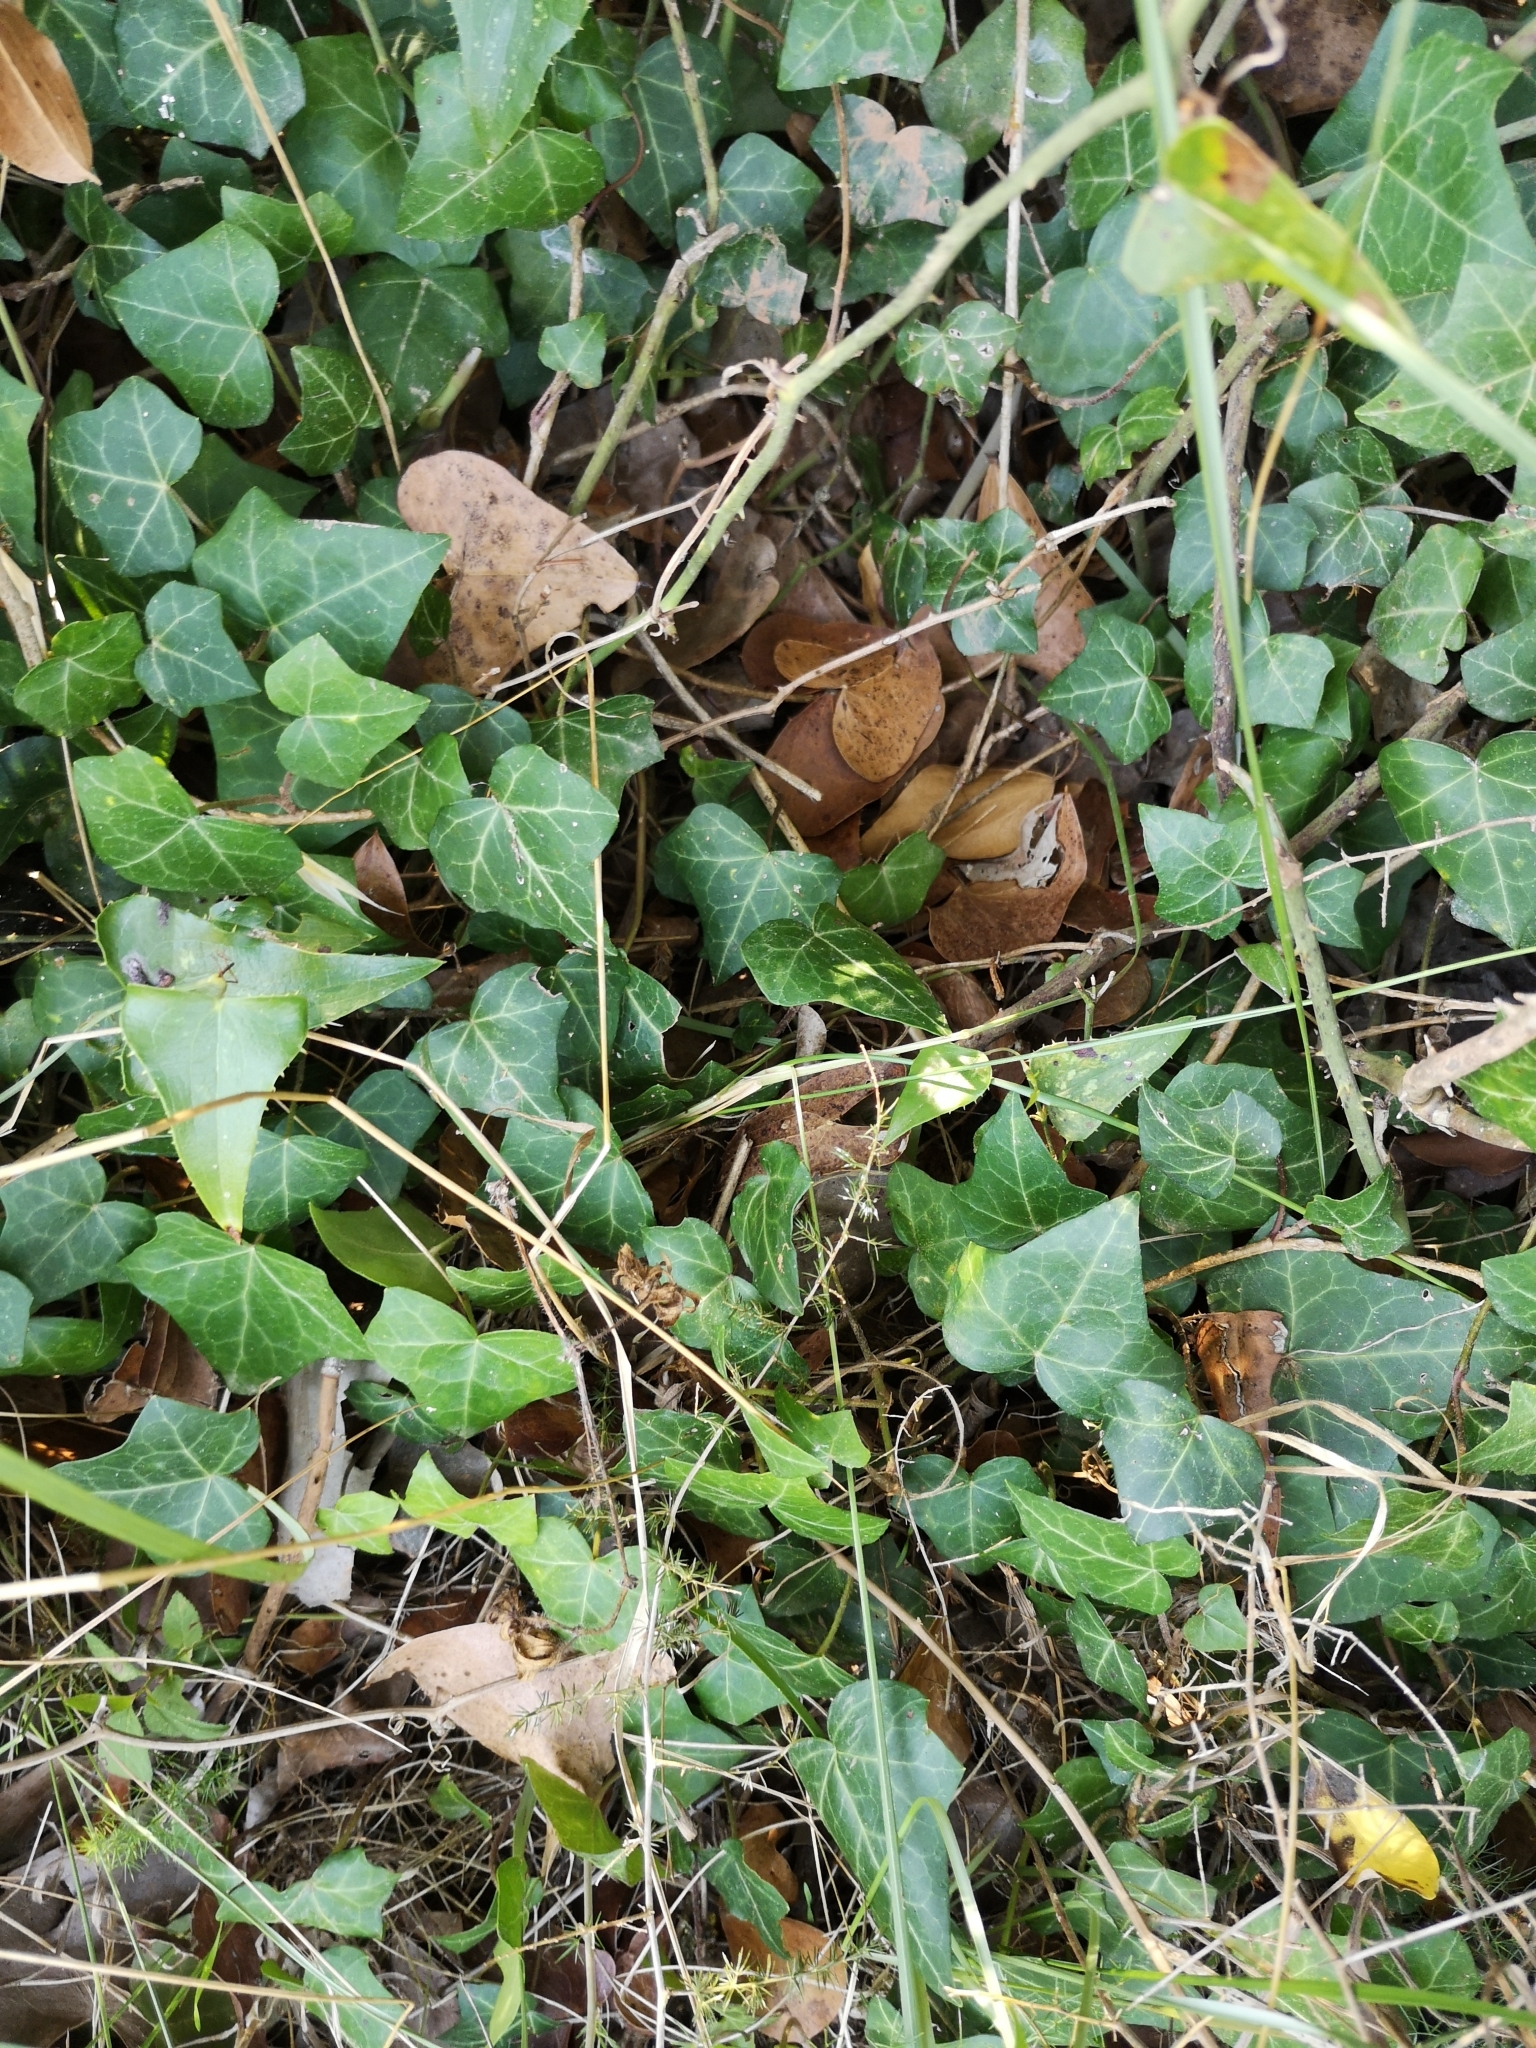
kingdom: Plantae
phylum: Tracheophyta
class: Magnoliopsida
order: Apiales
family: Araliaceae
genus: Hedera
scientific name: Hedera helix
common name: Ivy
